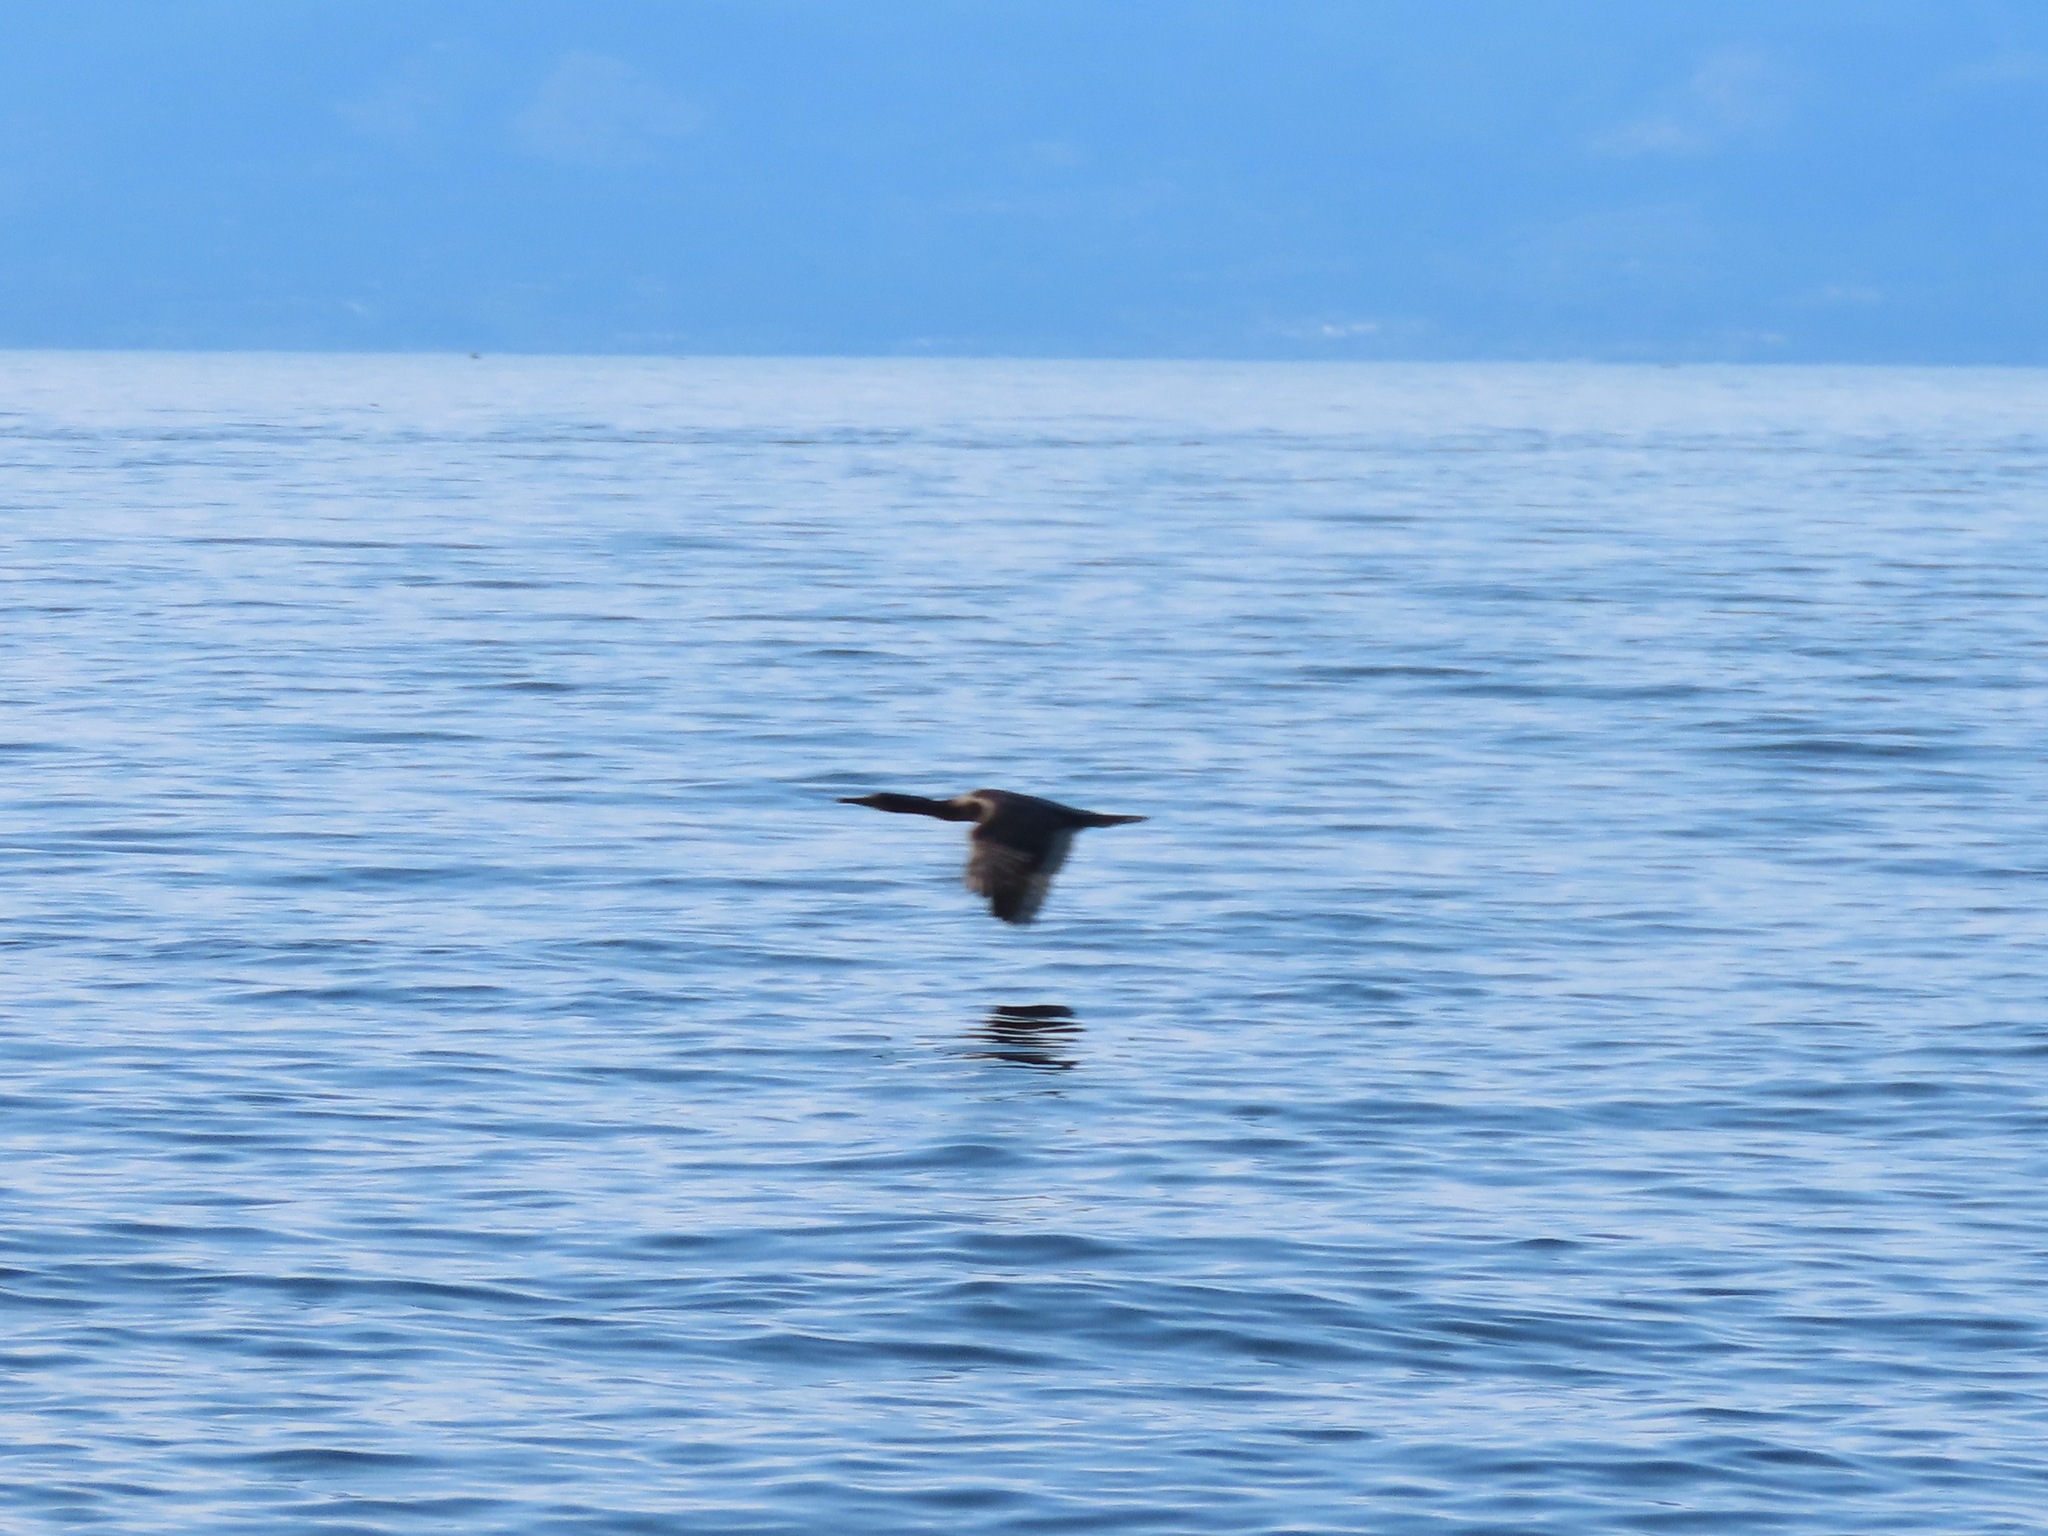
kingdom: Animalia
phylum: Chordata
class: Aves
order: Suliformes
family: Phalacrocoracidae
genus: Urile
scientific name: Urile penicillatus
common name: Brandt's cormorant
